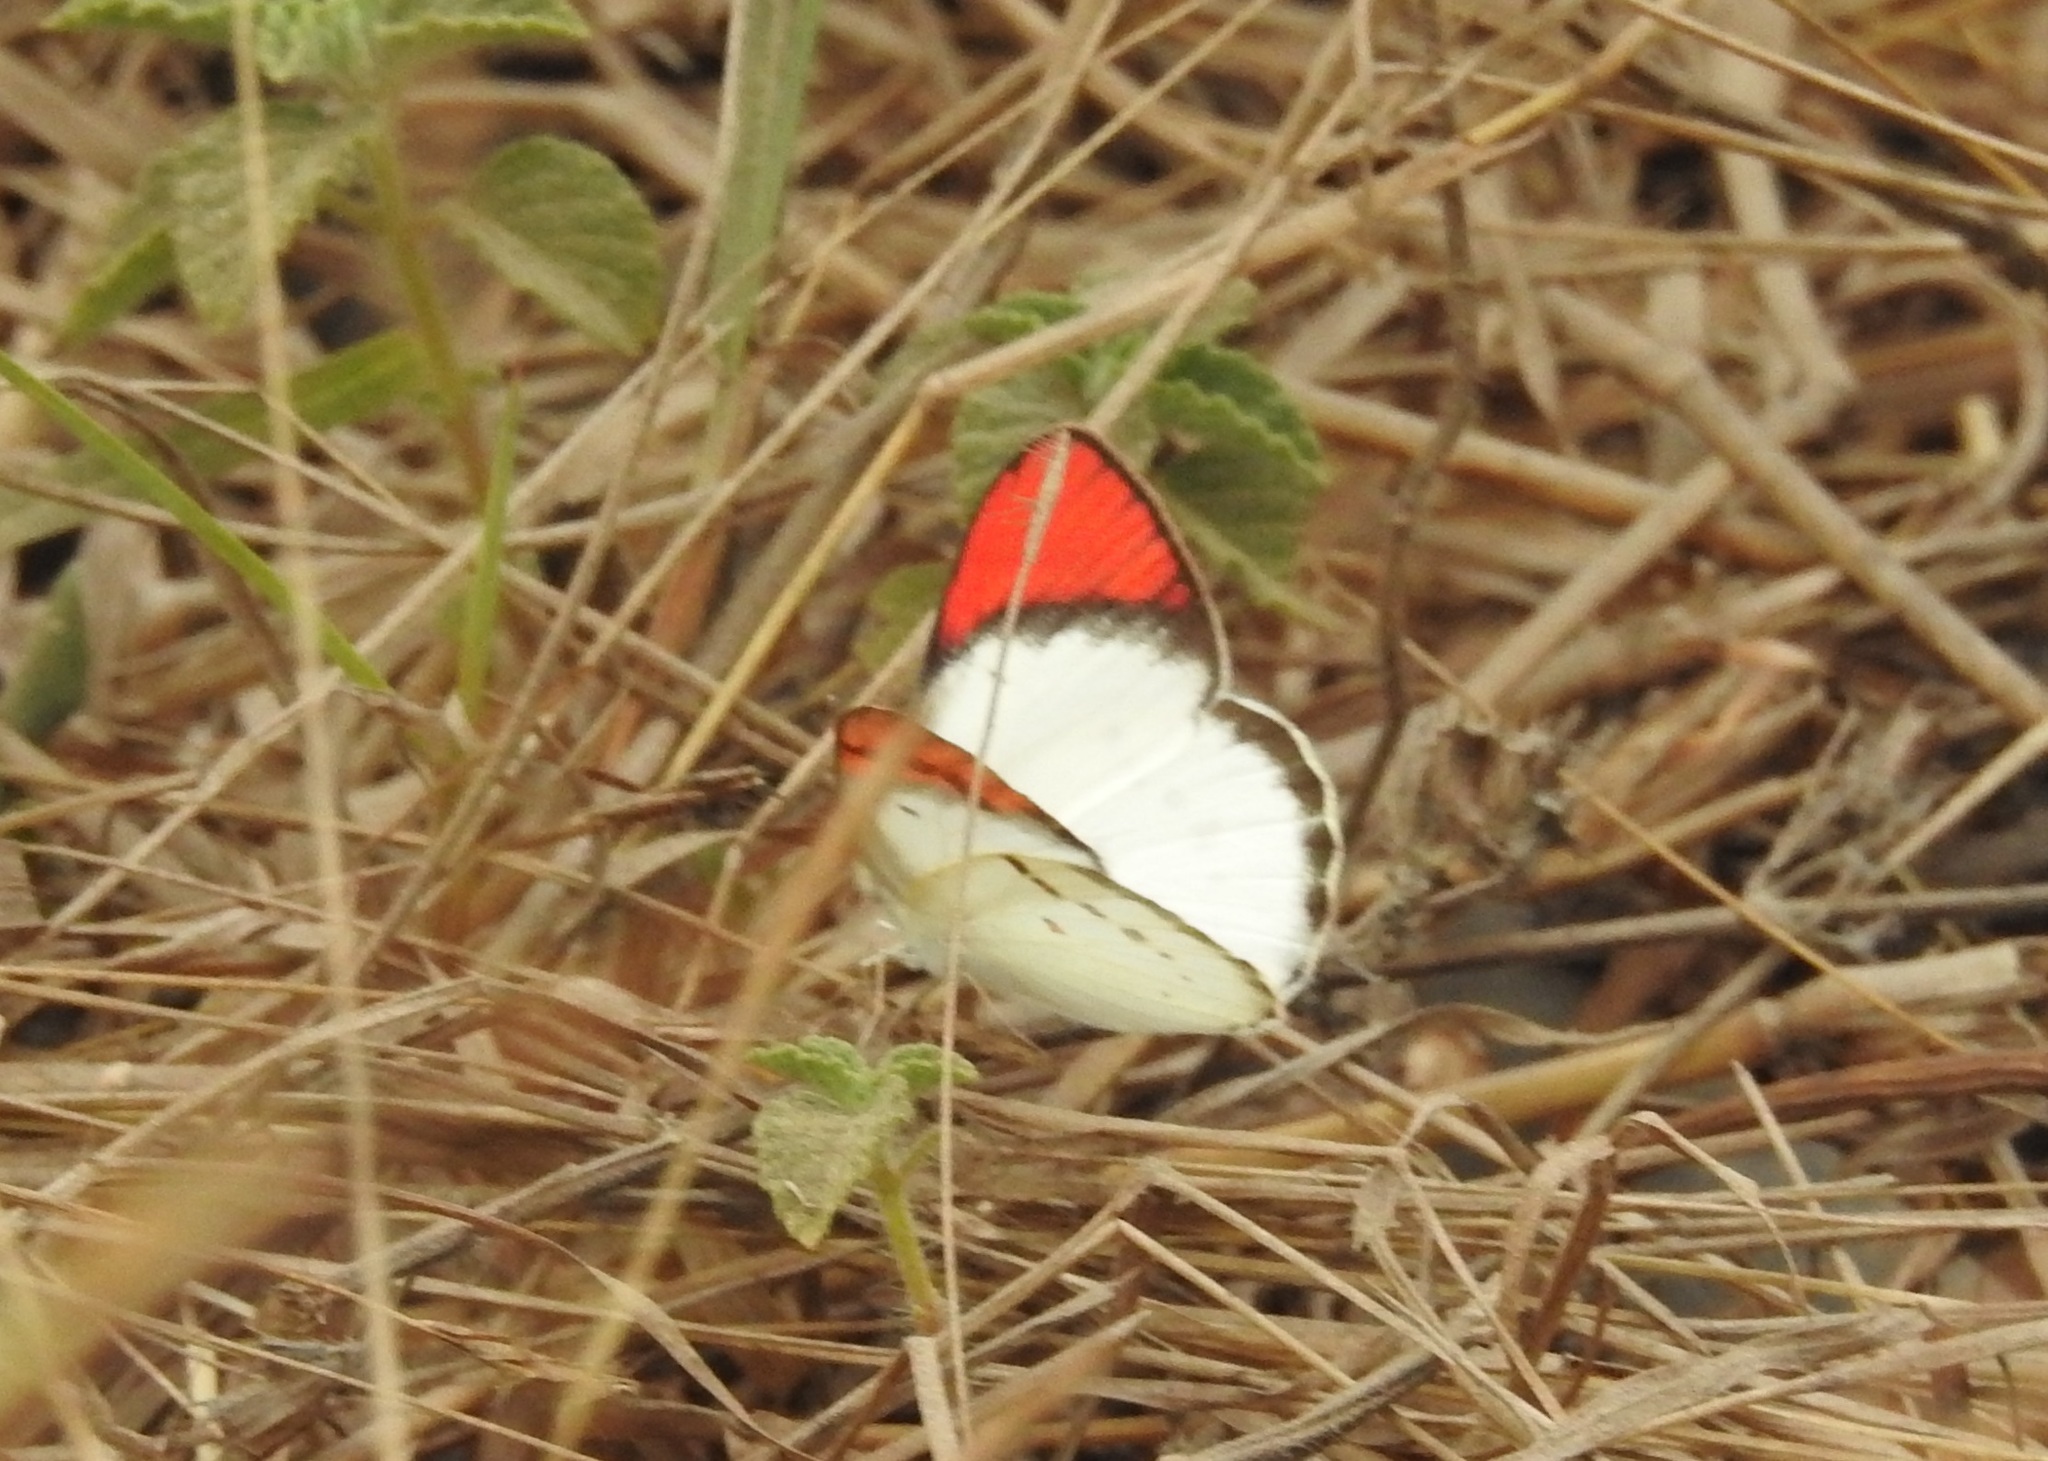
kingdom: Animalia
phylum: Arthropoda
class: Insecta
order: Lepidoptera
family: Pieridae
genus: Colotis
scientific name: Colotis danae
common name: Crimson tip
